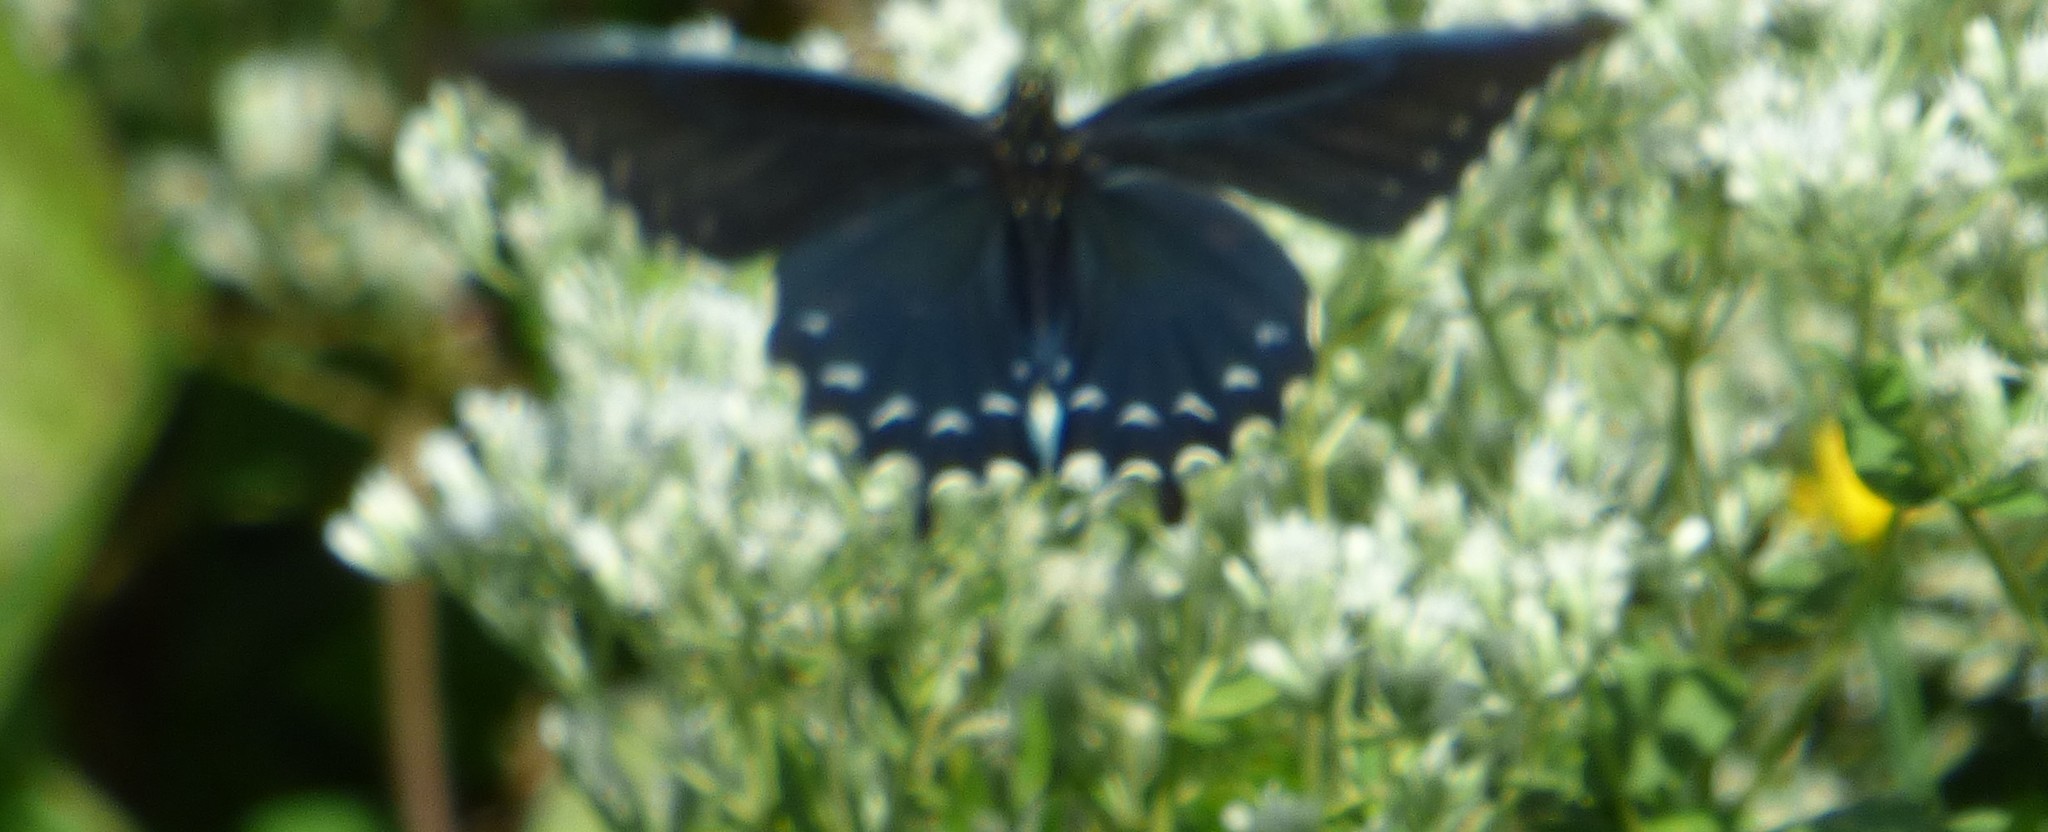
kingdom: Animalia
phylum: Arthropoda
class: Insecta
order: Lepidoptera
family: Papilionidae
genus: Battus
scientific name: Battus philenor
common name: Pipevine swallowtail
